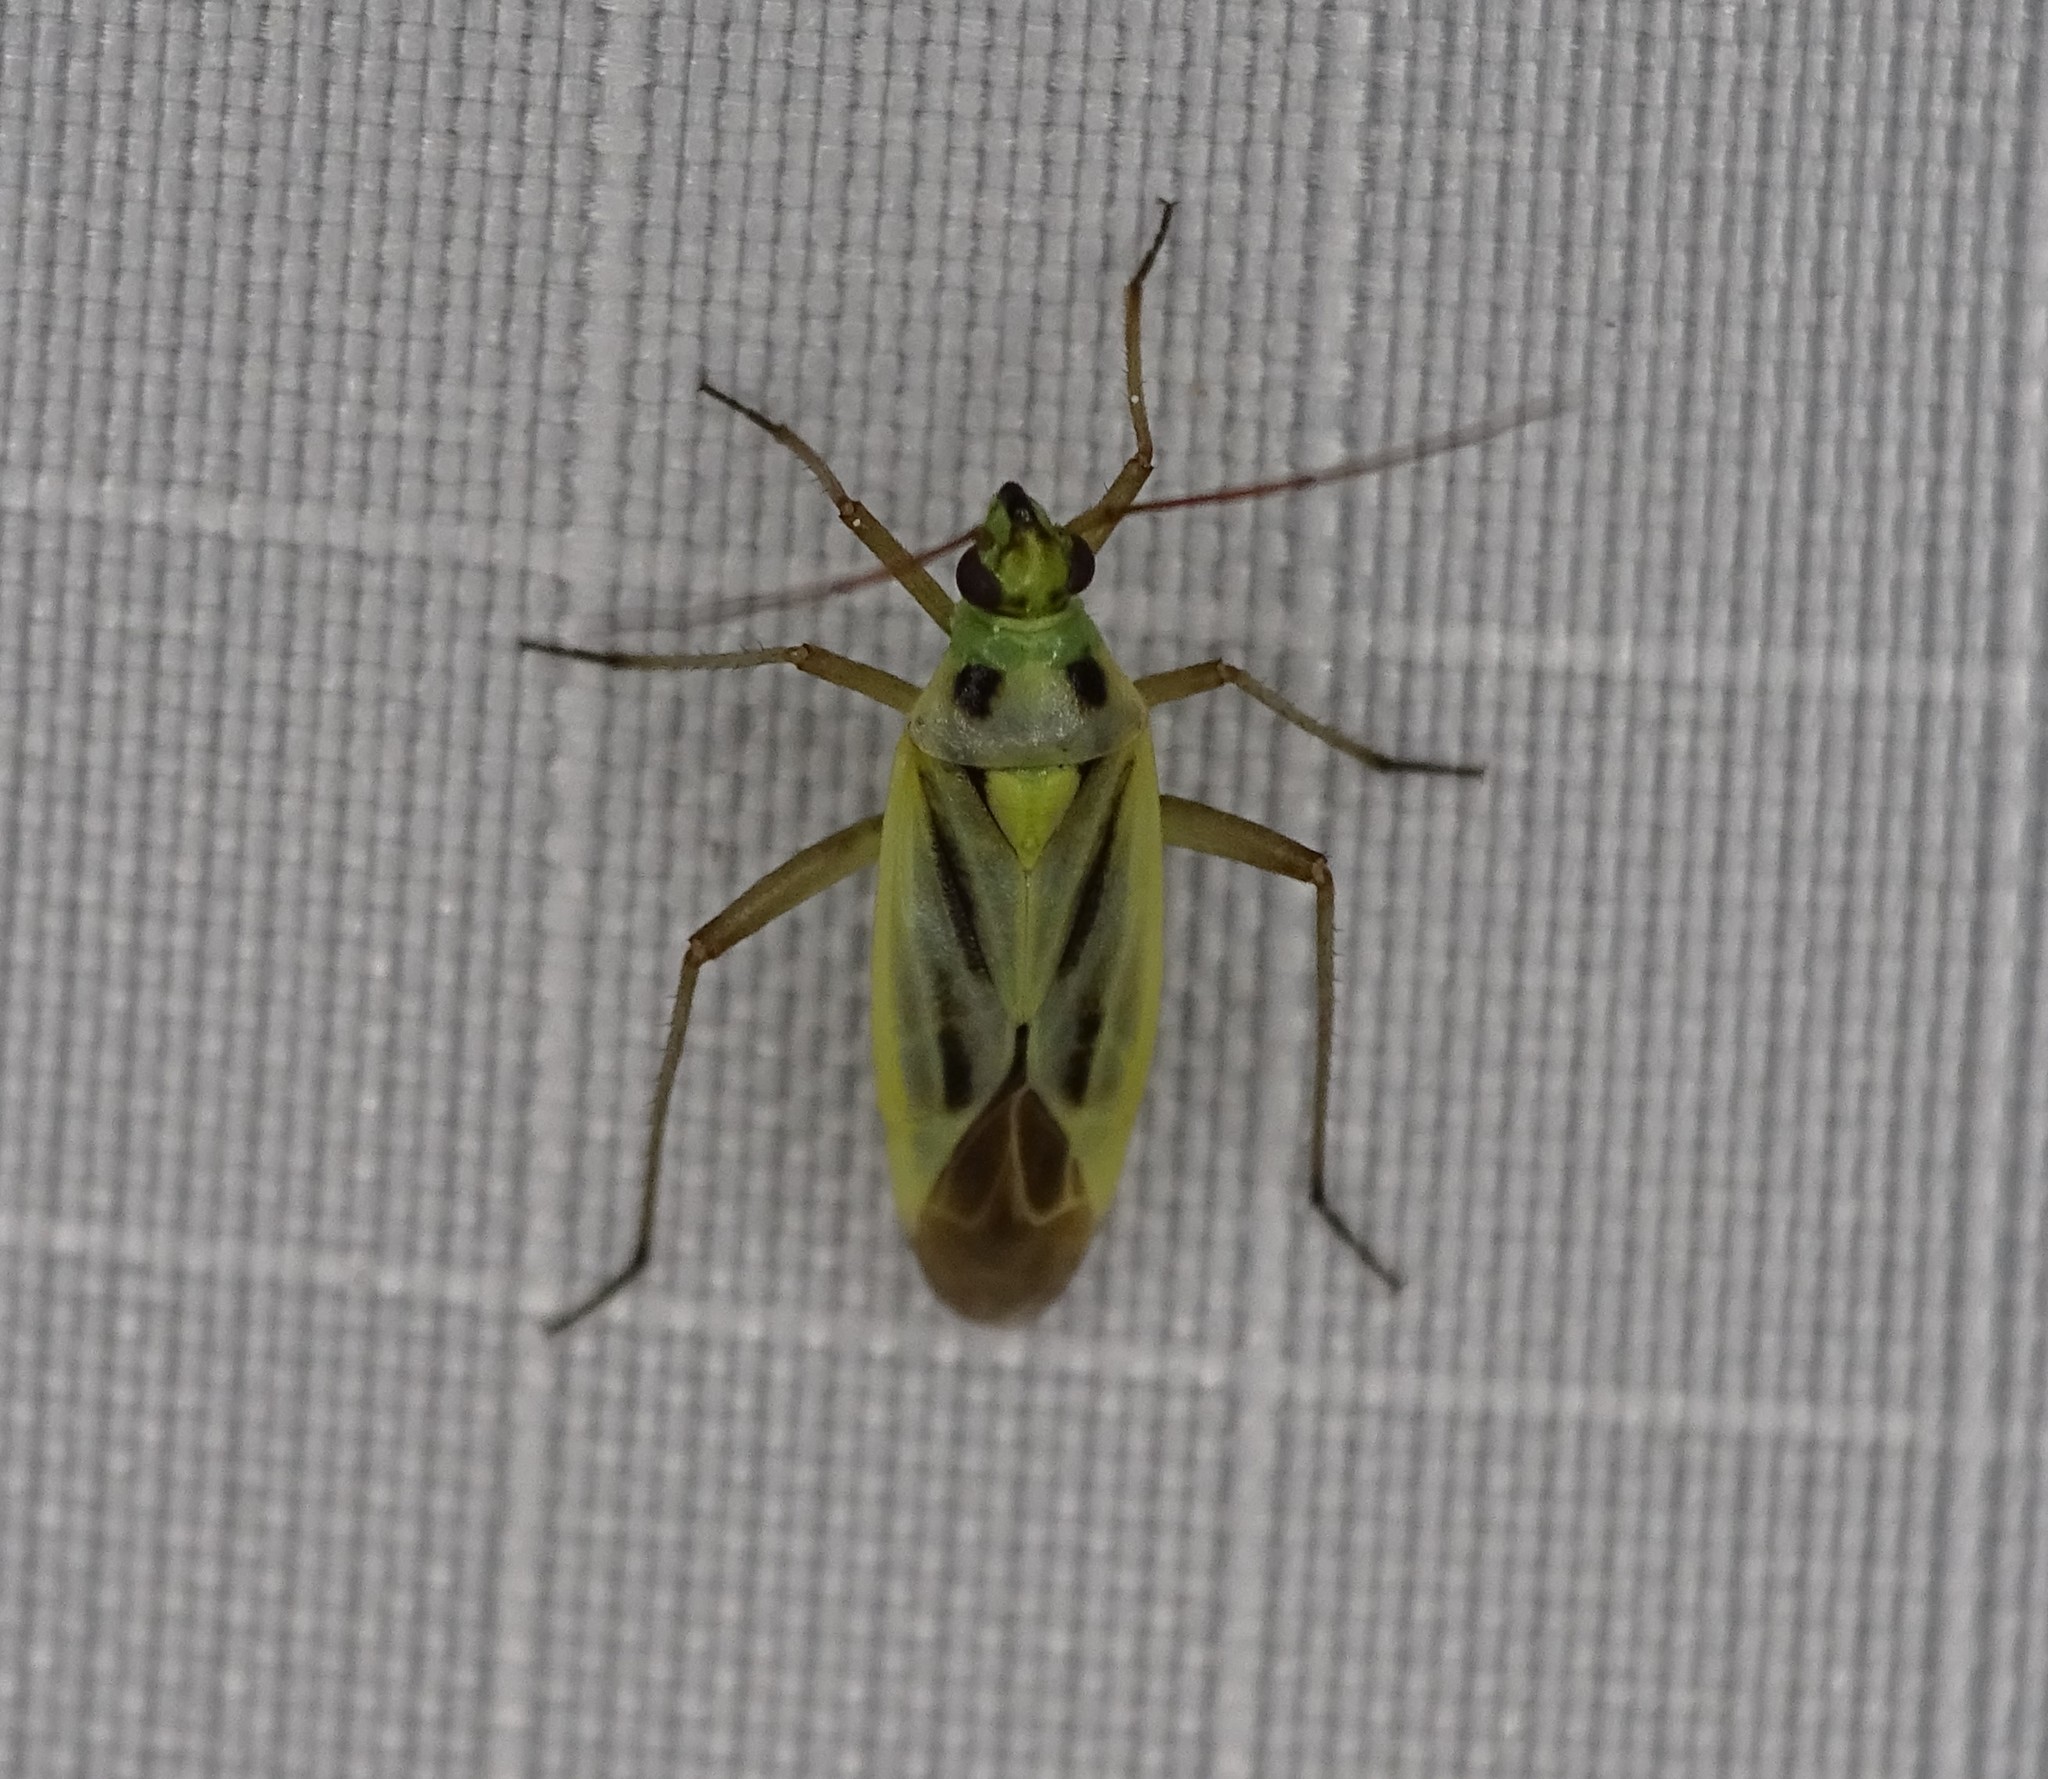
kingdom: Animalia
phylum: Arthropoda
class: Insecta
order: Hemiptera
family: Miridae
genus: Stenotus
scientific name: Stenotus binotatus
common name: Plant bug
